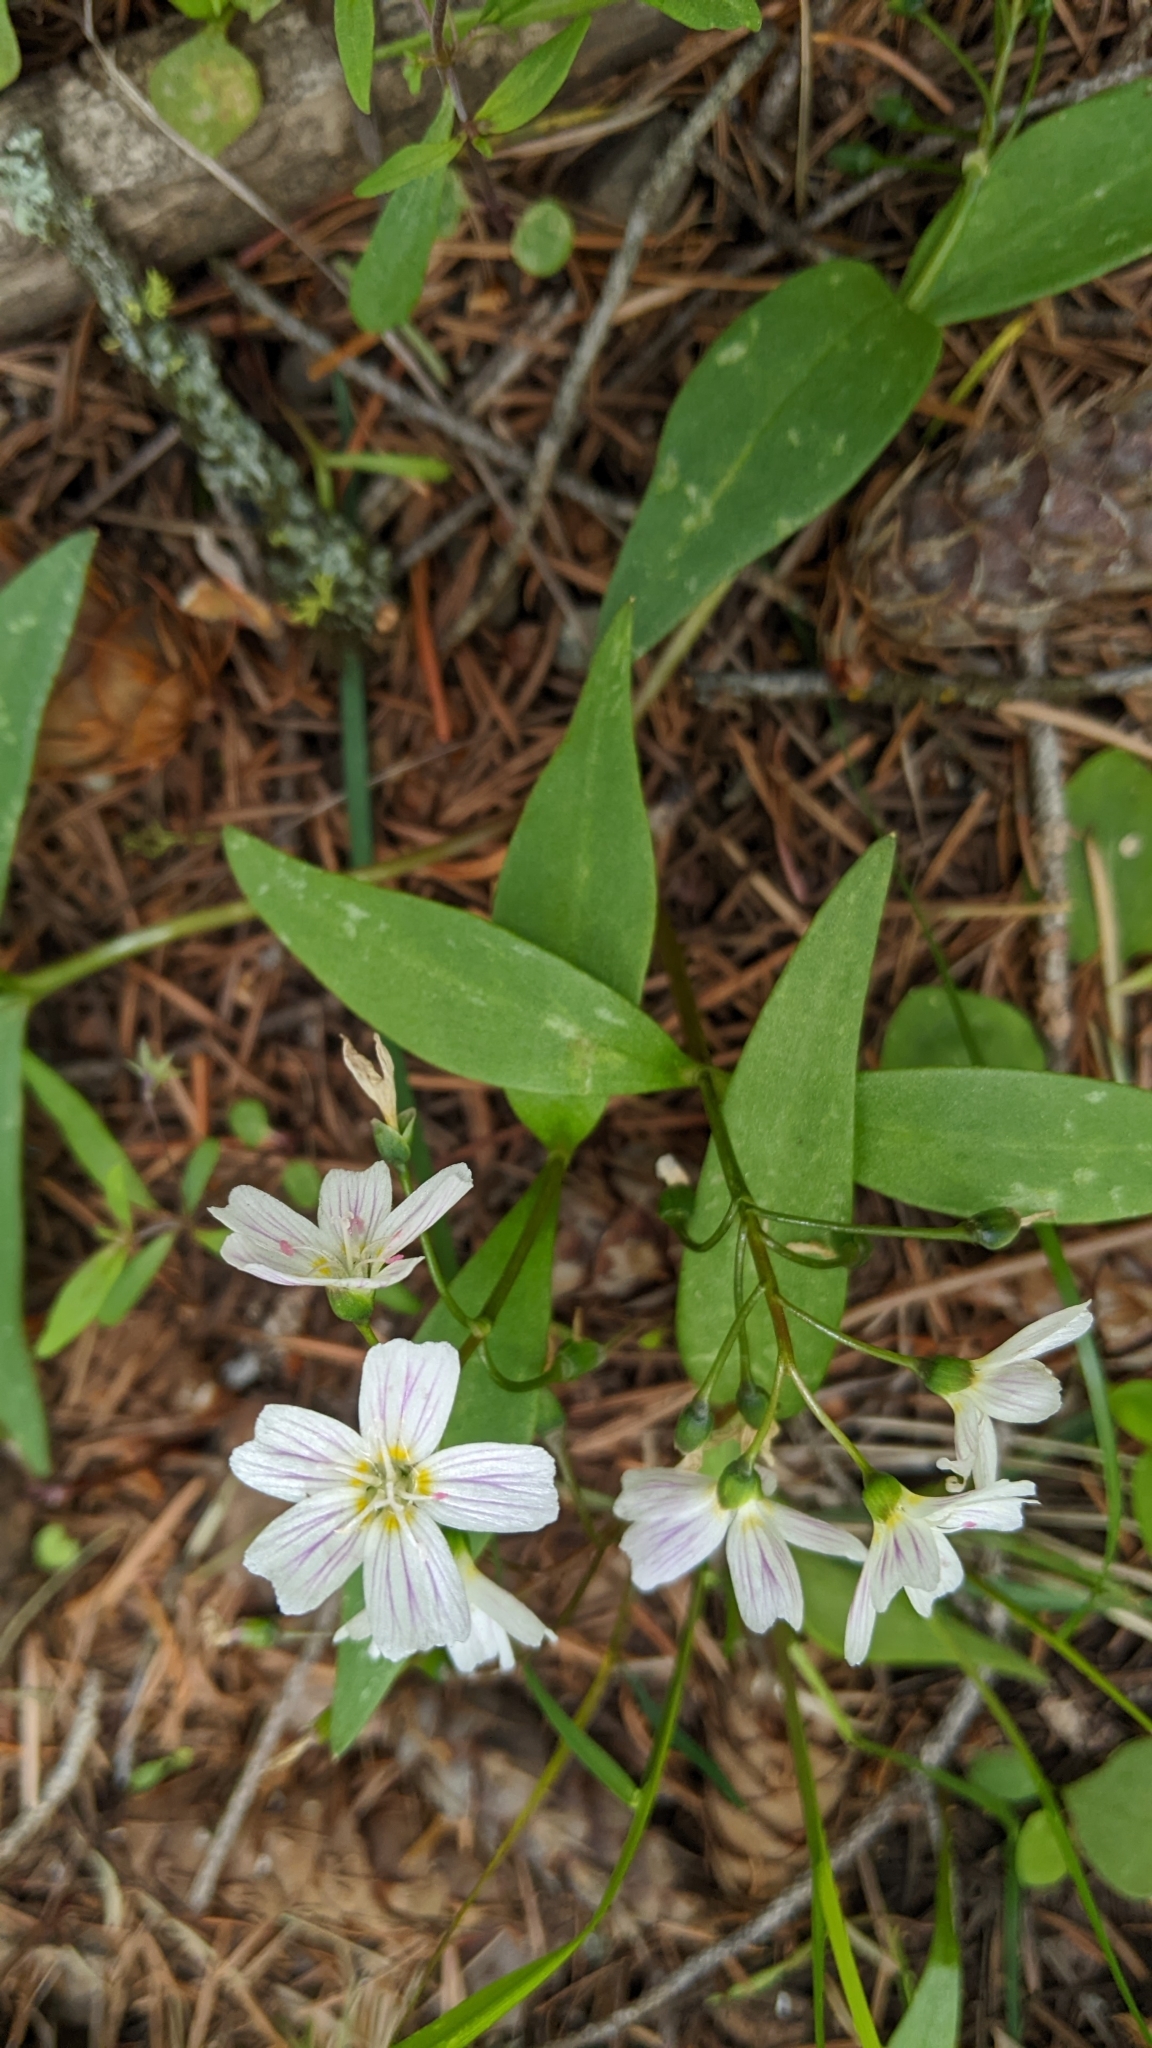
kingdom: Plantae
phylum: Tracheophyta
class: Magnoliopsida
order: Caryophyllales
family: Montiaceae
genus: Claytonia
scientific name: Claytonia lanceolata
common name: Western spring-beauty
